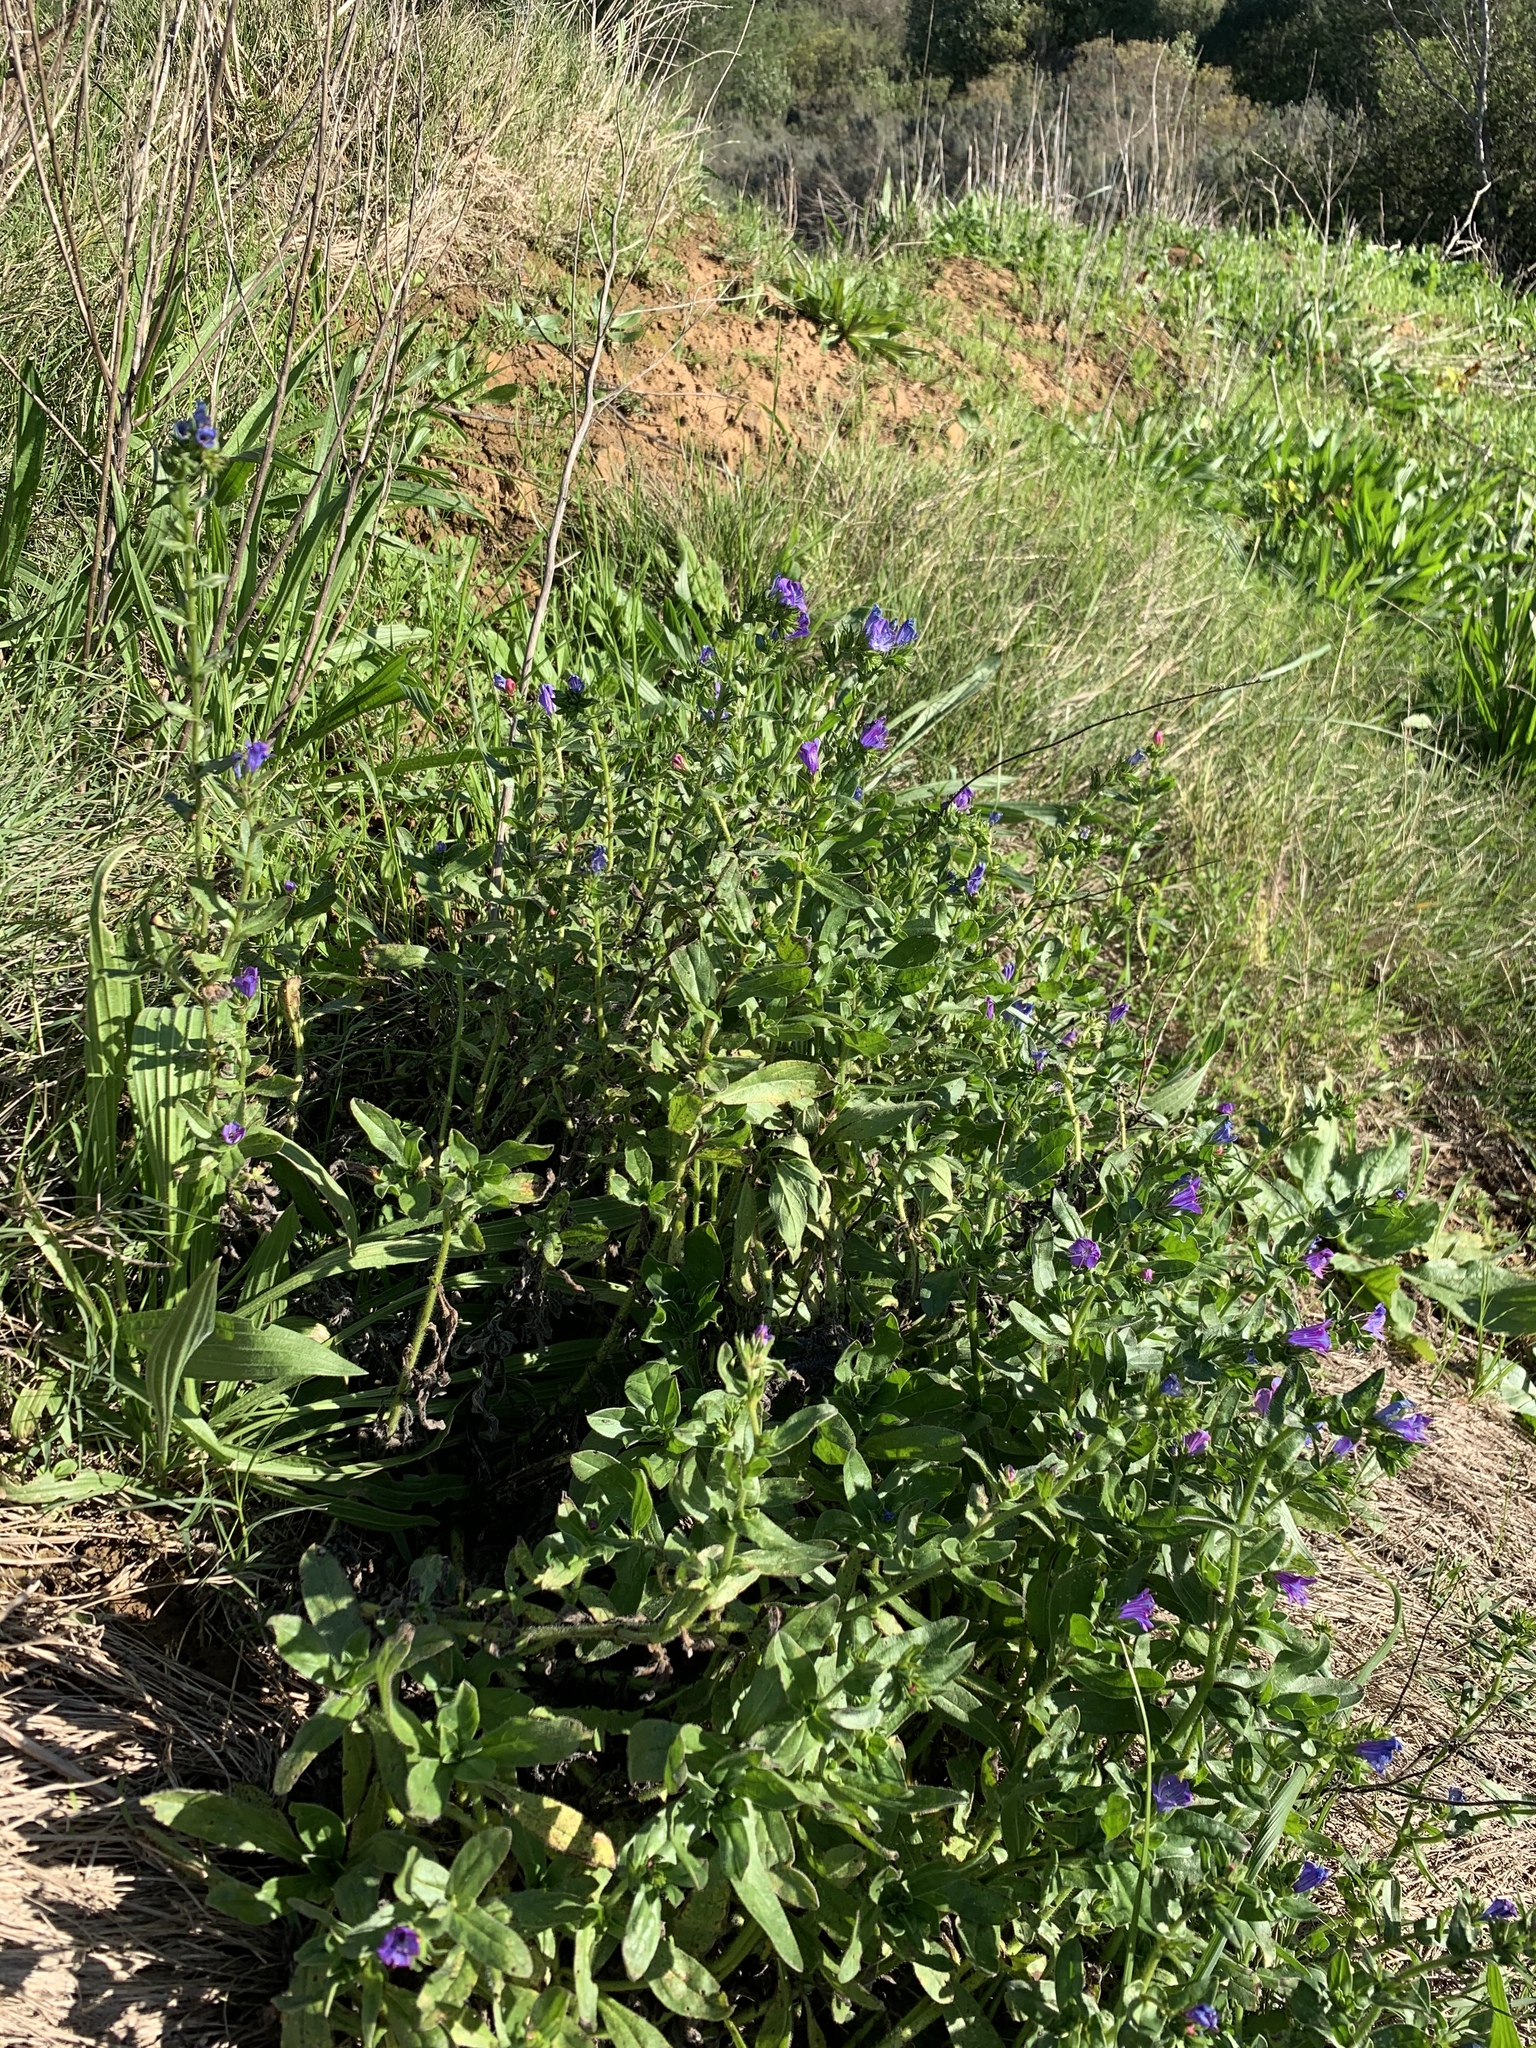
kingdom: Plantae
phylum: Tracheophyta
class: Magnoliopsida
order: Boraginales
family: Boraginaceae
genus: Echium
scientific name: Echium plantagineum
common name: Purple viper's-bugloss
